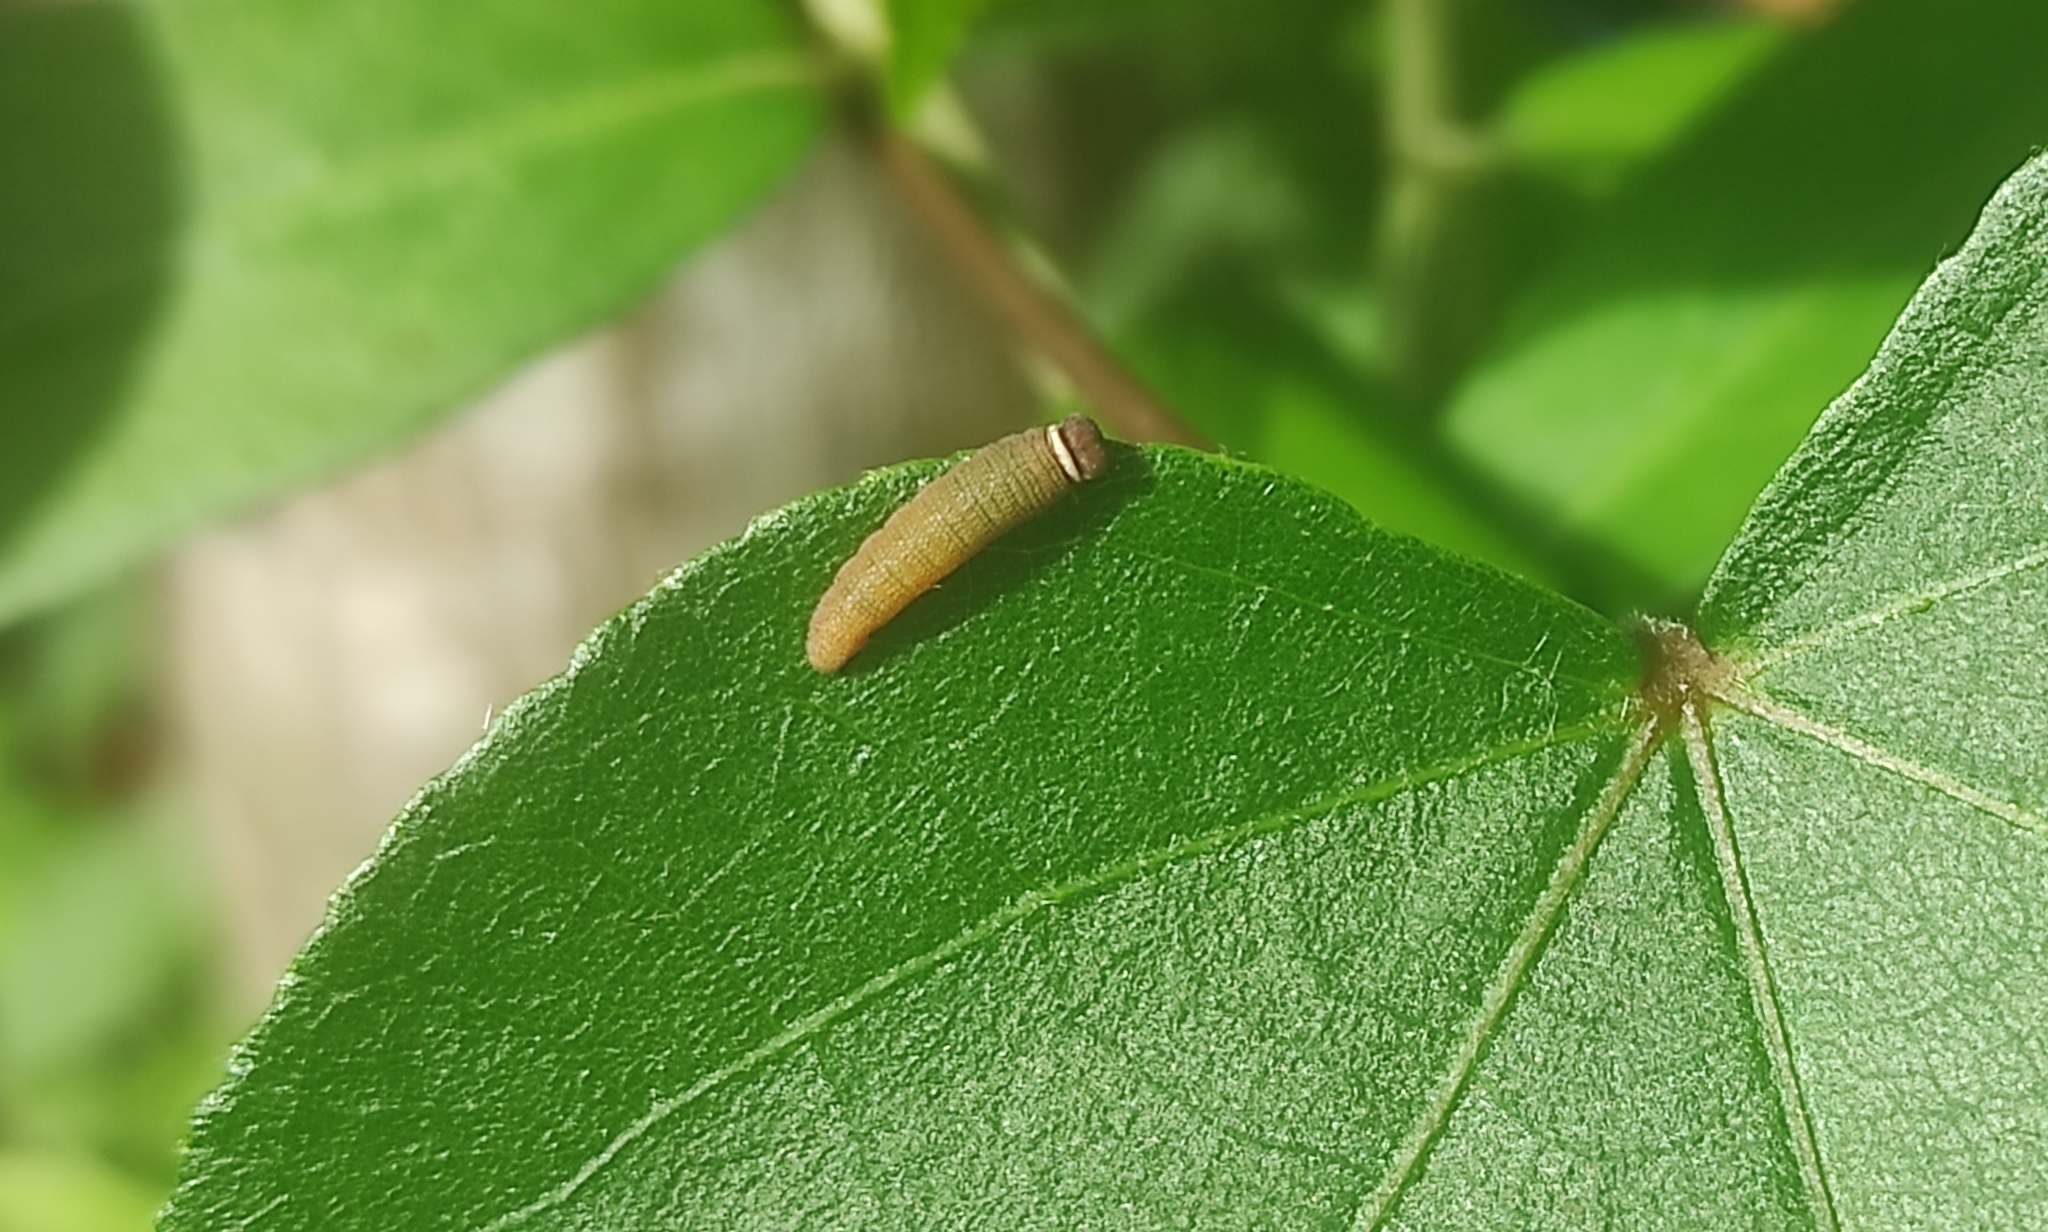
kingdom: Animalia
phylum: Arthropoda
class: Insecta
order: Lepidoptera
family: Hesperiidae
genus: Coladenia
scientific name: Coladenia
